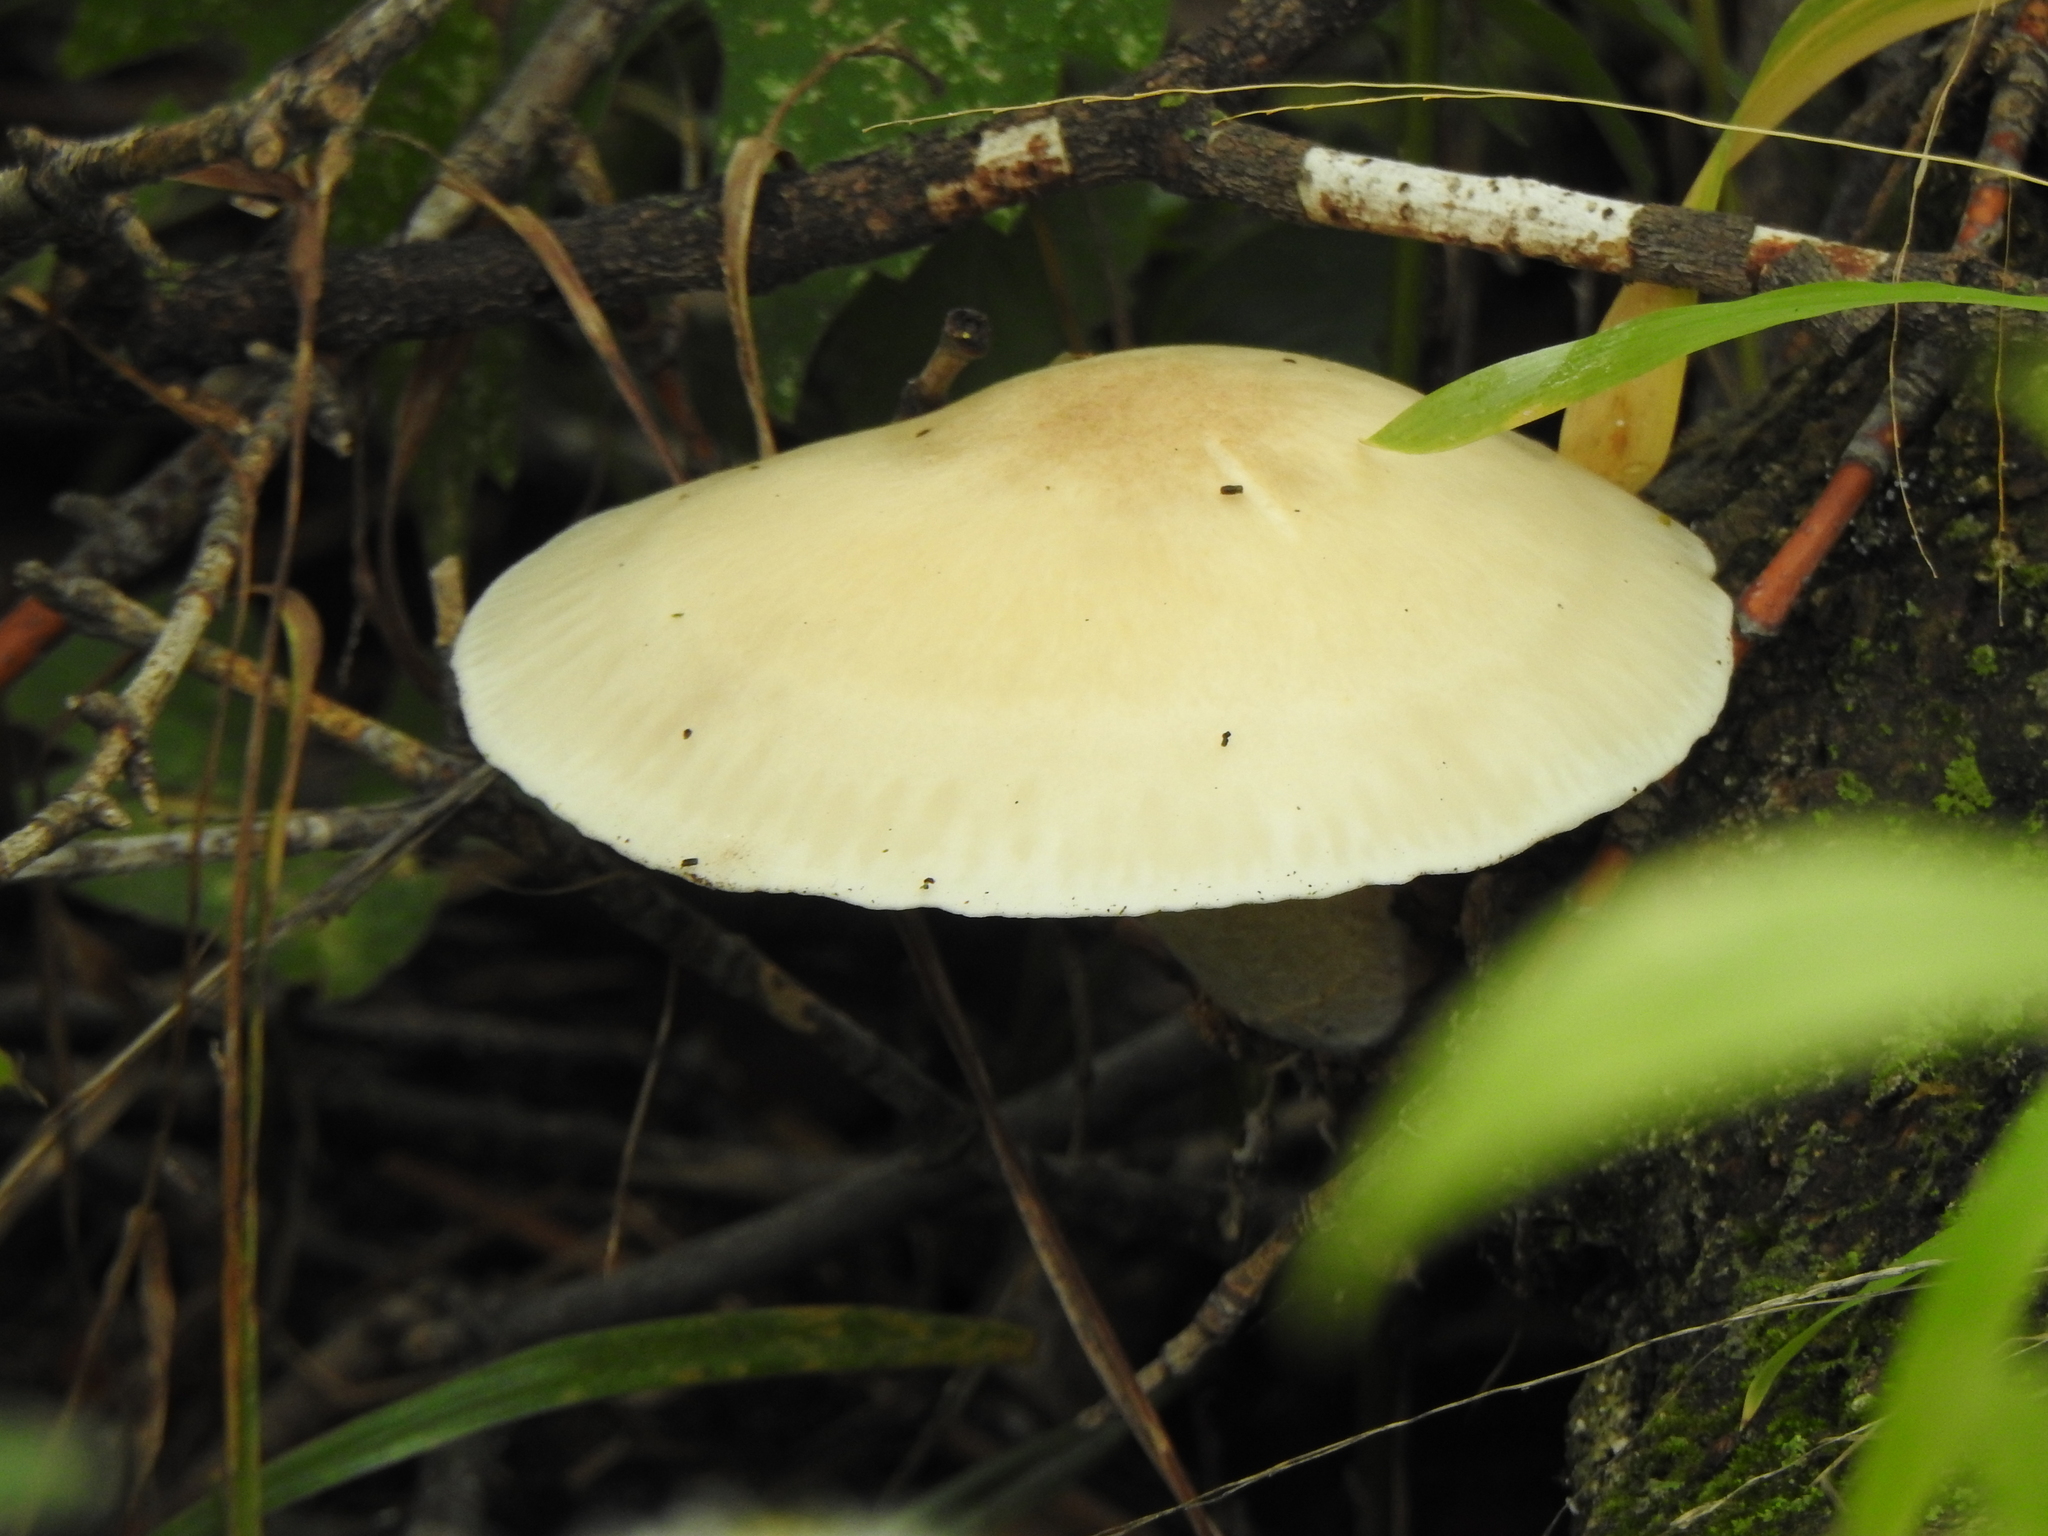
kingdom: Fungi
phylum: Basidiomycota
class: Agaricomycetes
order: Agaricales
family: Lyophyllaceae
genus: Hypsizygus
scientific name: Hypsizygus ulmarius
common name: Elm leech
